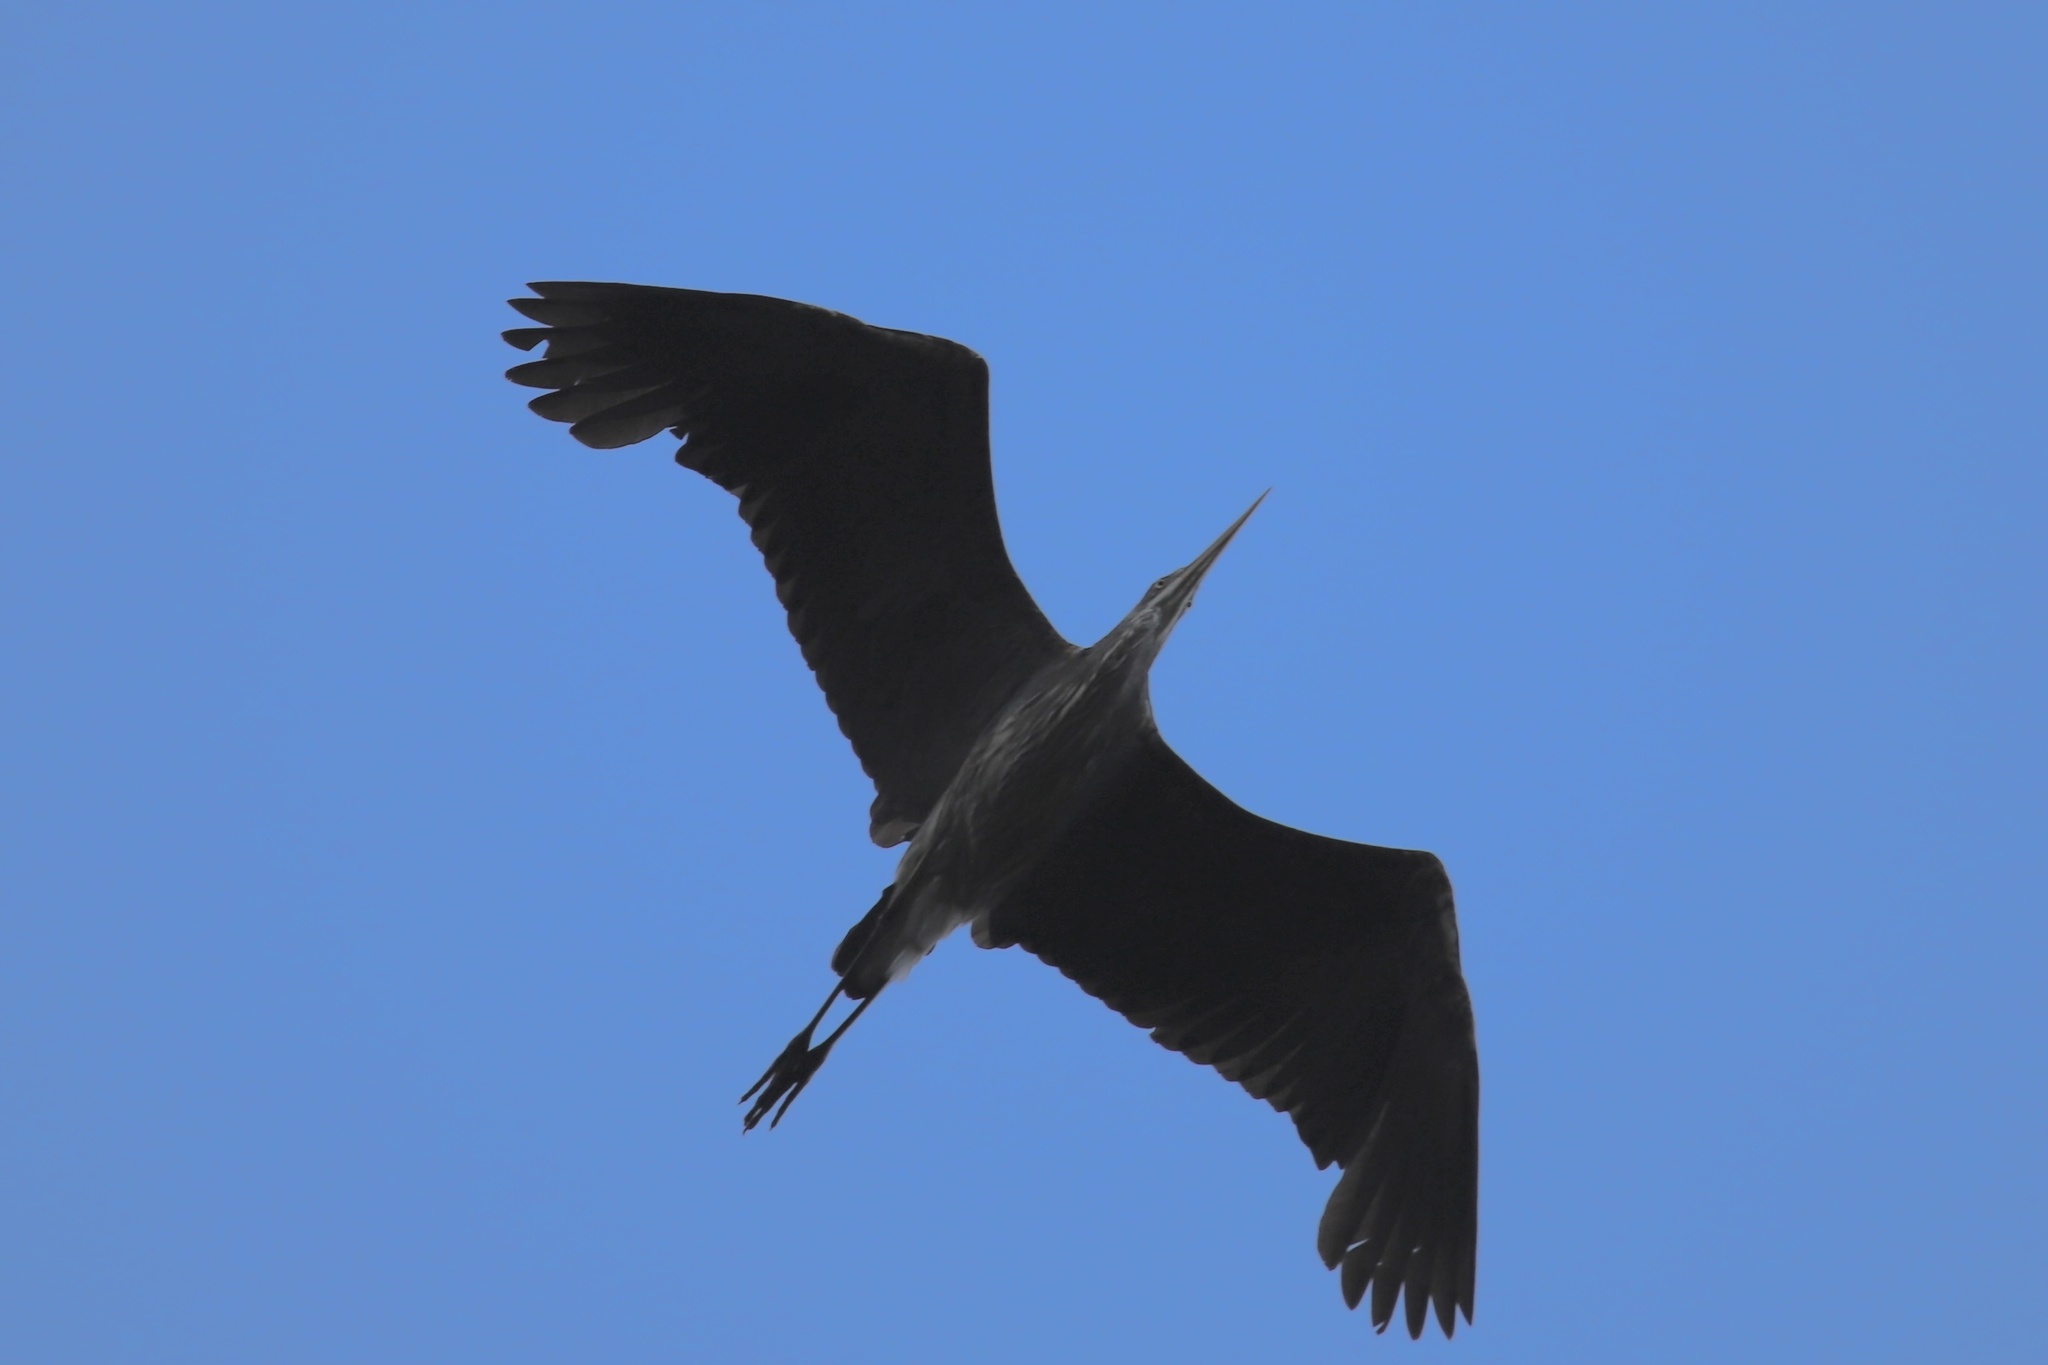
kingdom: Animalia
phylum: Chordata
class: Aves
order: Pelecaniformes
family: Ardeidae
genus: Ardea
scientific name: Ardea herodias
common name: Great blue heron
